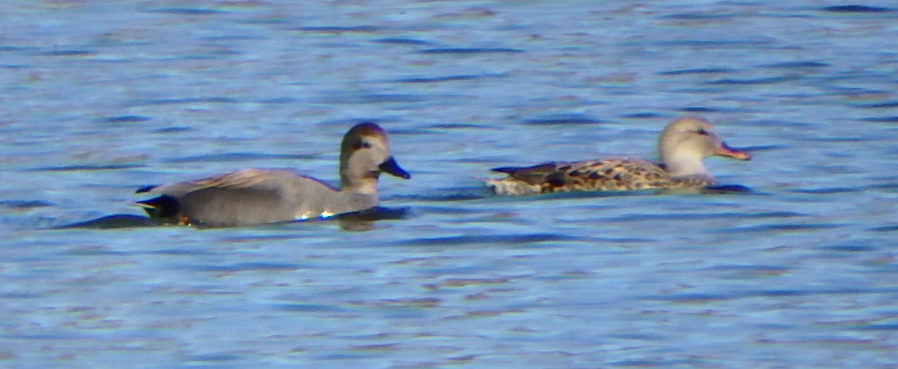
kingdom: Animalia
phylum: Chordata
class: Aves
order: Anseriformes
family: Anatidae
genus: Mareca
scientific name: Mareca strepera
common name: Gadwall
